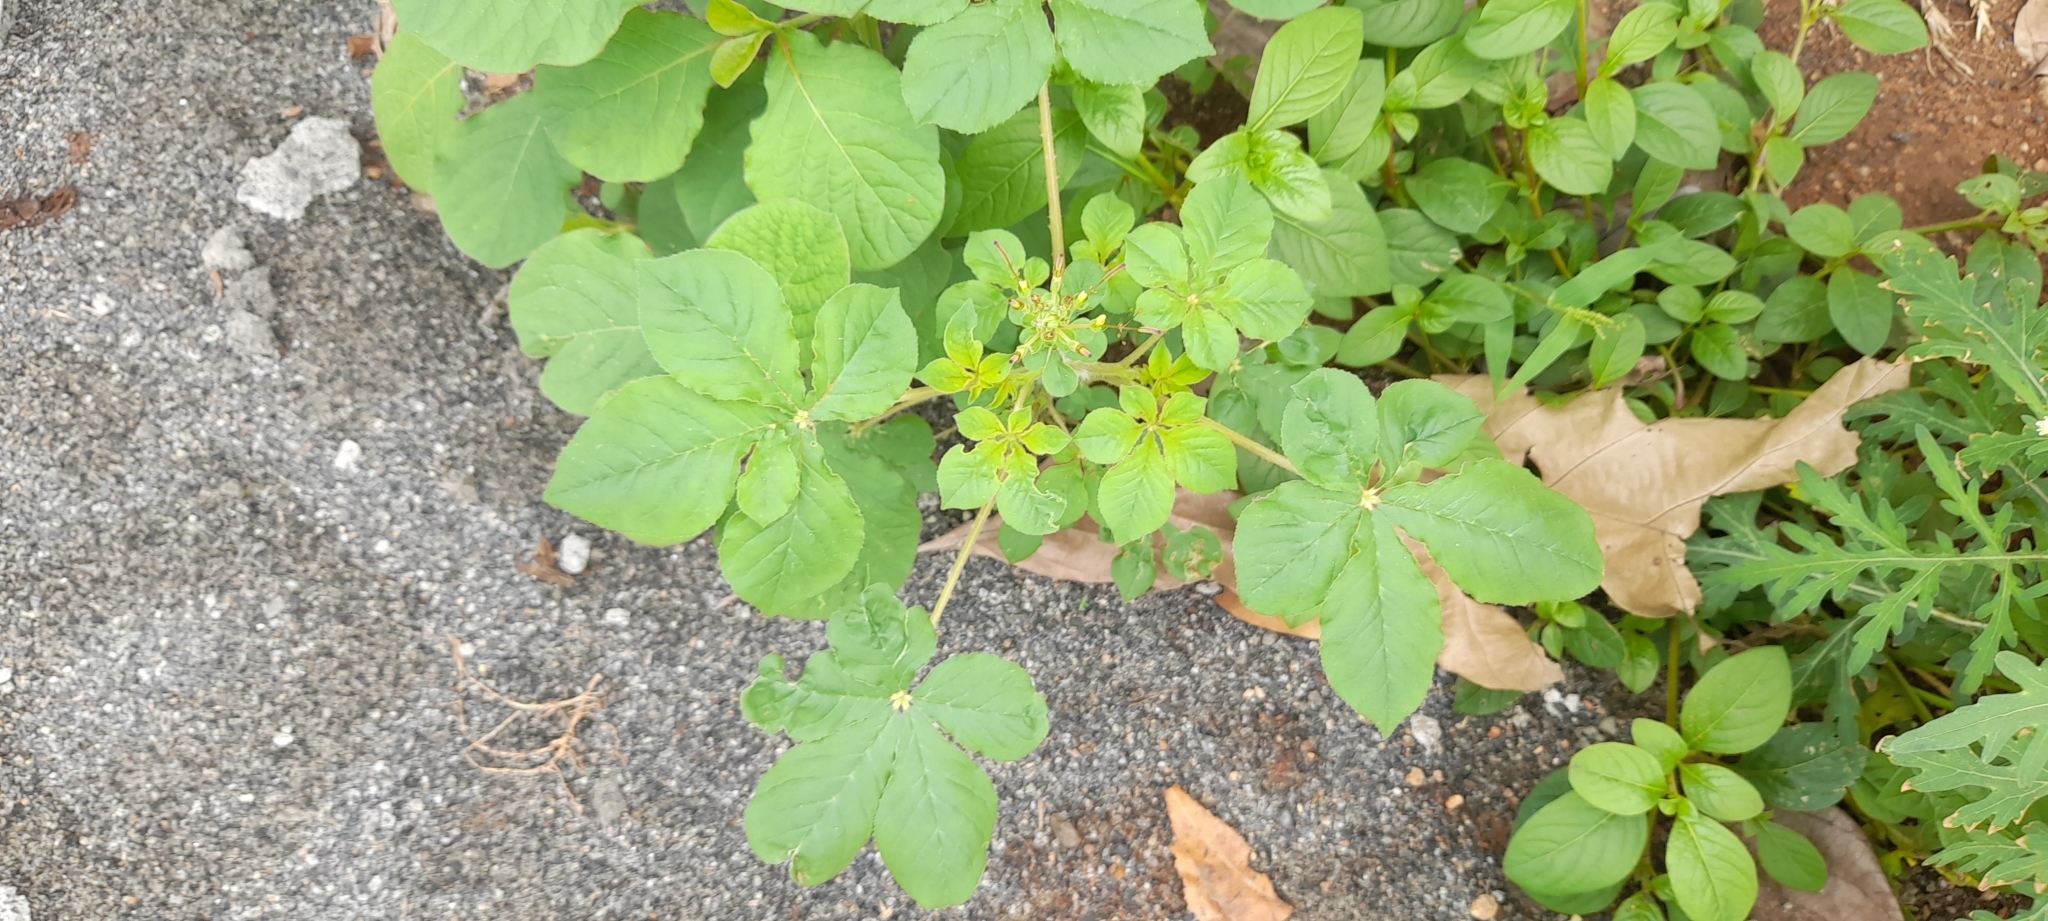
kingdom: Plantae
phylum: Tracheophyta
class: Magnoliopsida
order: Brassicales
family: Cleomaceae
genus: Gynandropsis
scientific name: Gynandropsis gynandra
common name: Spiderwisp
